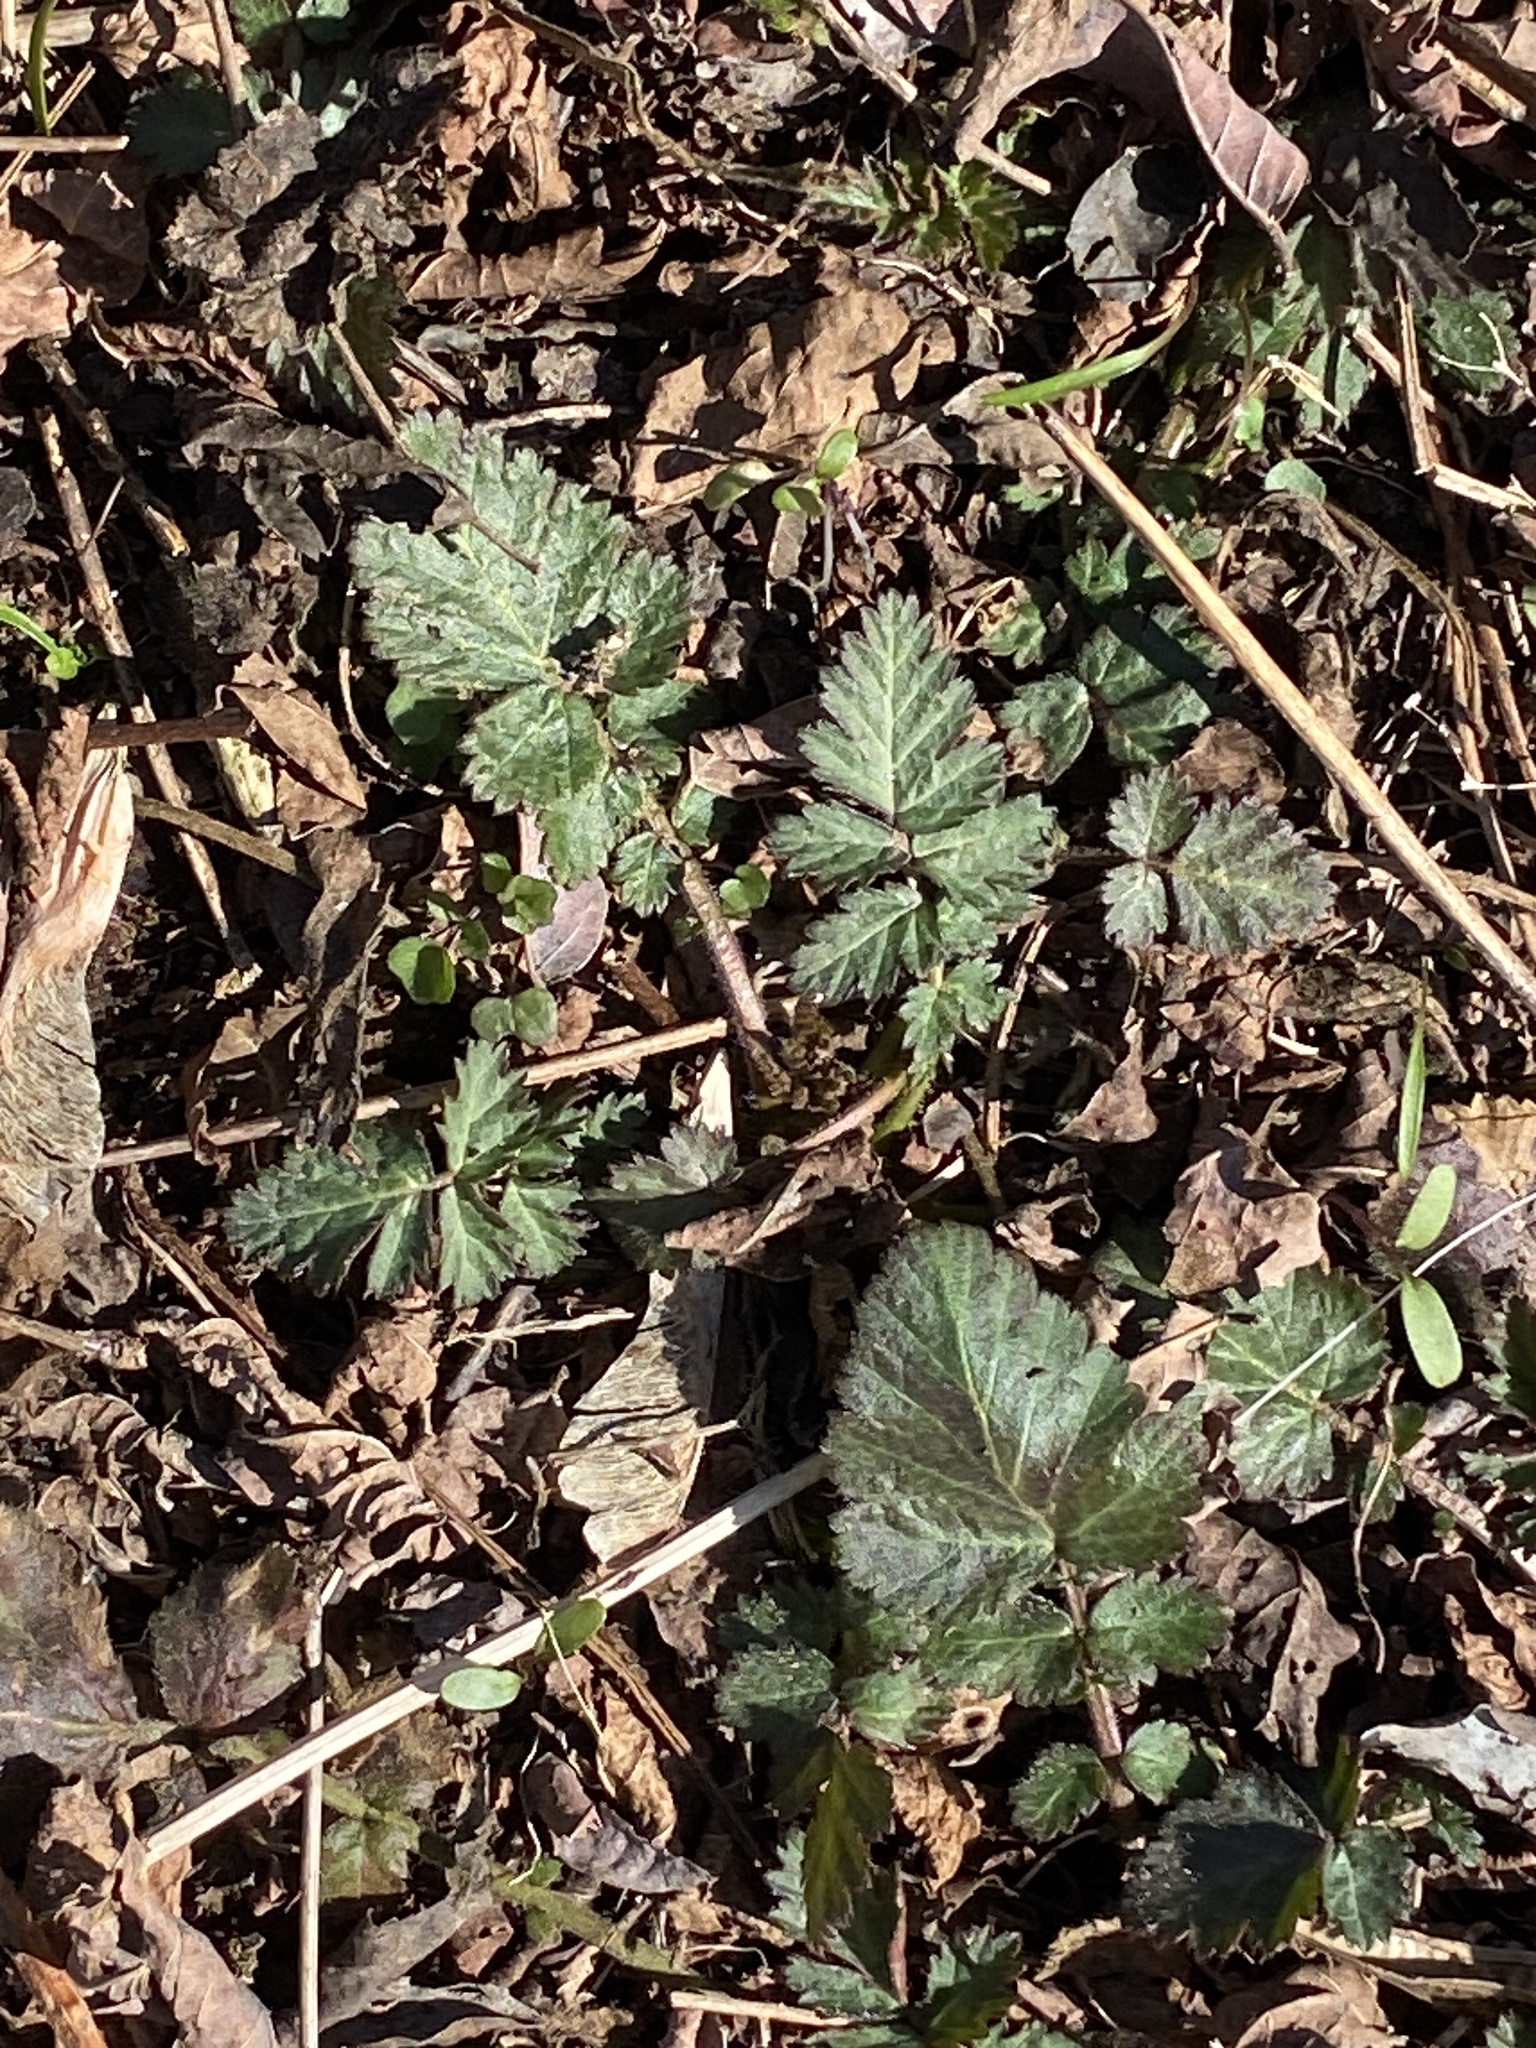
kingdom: Plantae
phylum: Tracheophyta
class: Magnoliopsida
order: Rosales
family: Rosaceae
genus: Geum
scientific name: Geum canadense
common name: White avens
